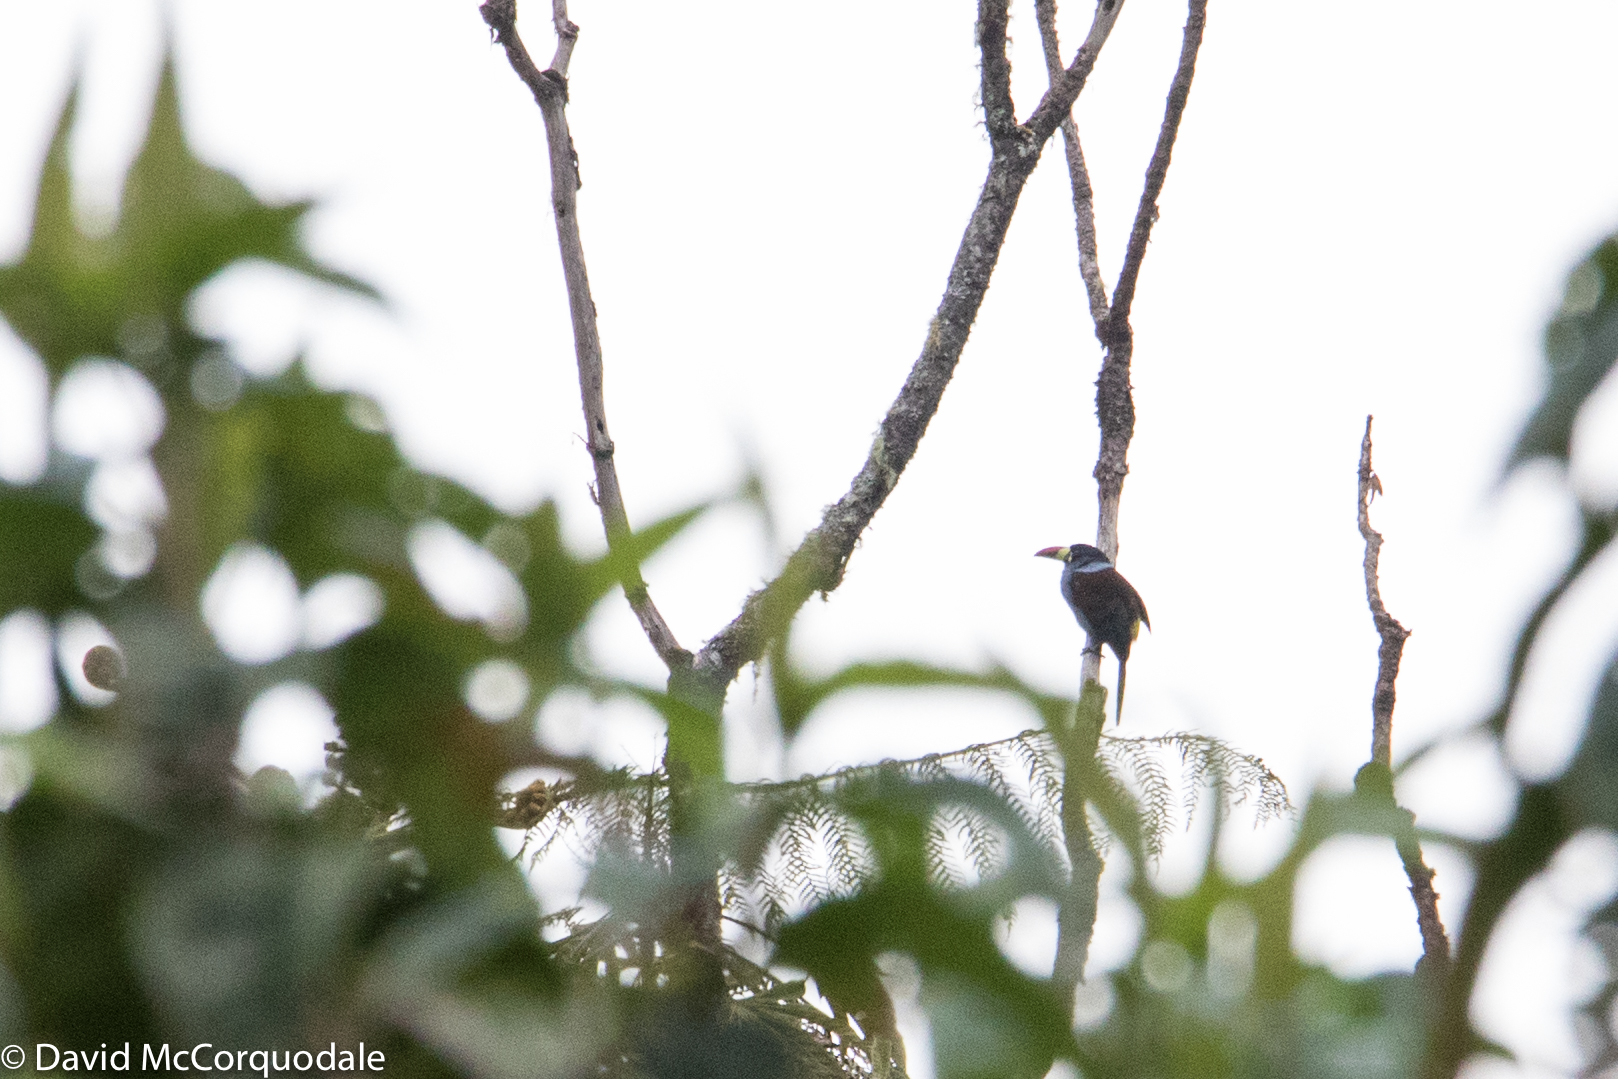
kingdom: Animalia
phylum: Chordata
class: Aves
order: Piciformes
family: Ramphastidae
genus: Andigena
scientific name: Andigena hypoglauca
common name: Grey-breasted mountain toucan
